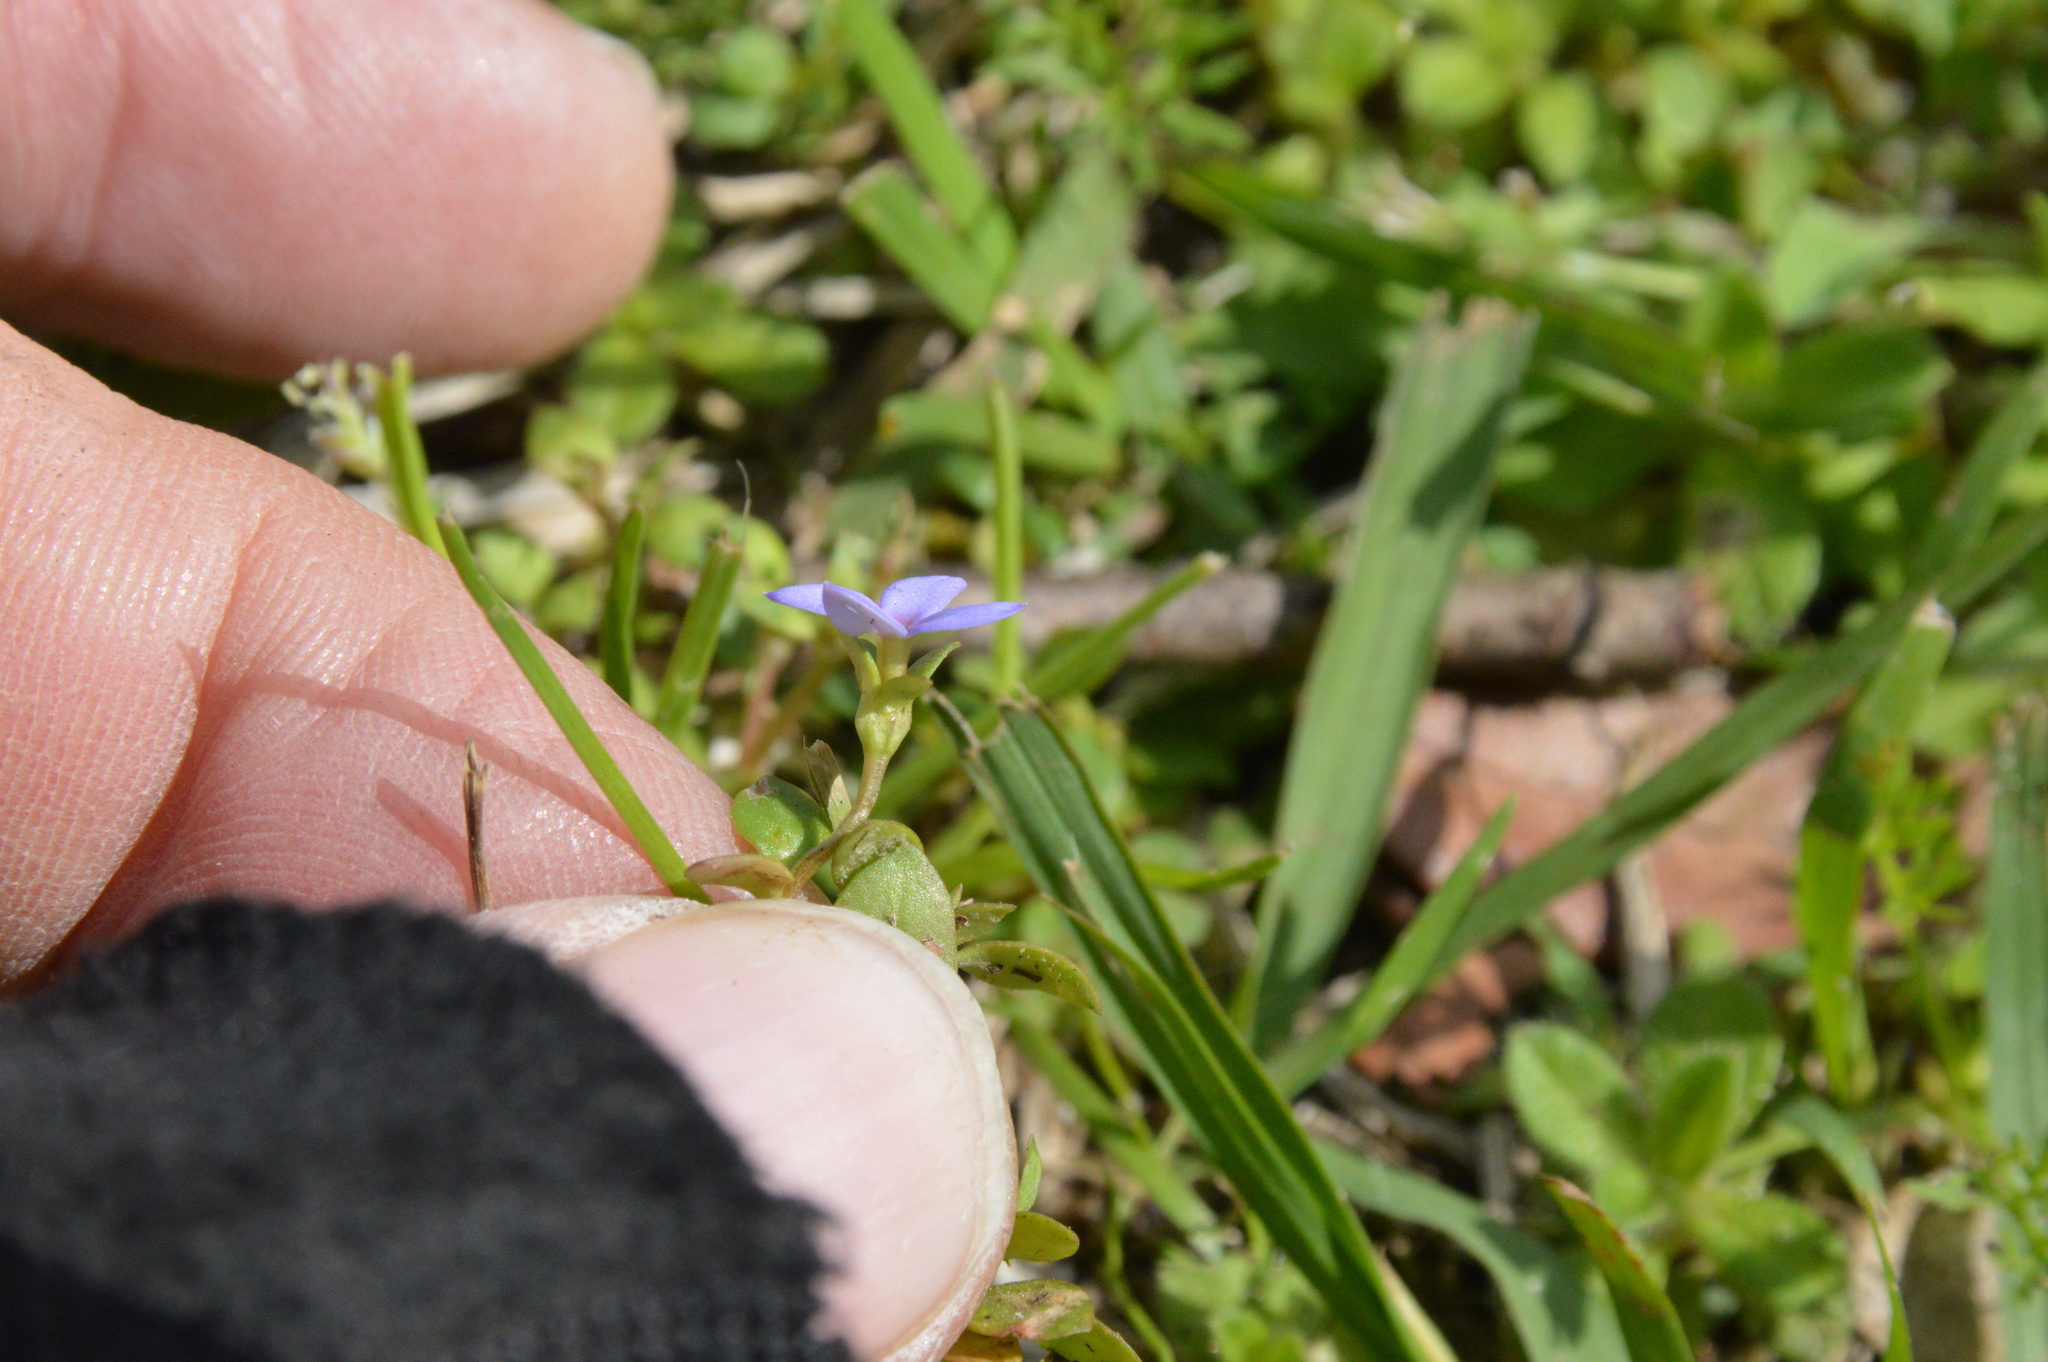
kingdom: Plantae
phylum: Tracheophyta
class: Magnoliopsida
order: Gentianales
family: Rubiaceae
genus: Houstonia
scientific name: Houstonia pusilla
